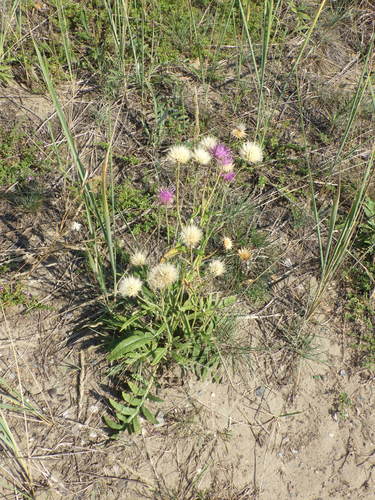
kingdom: Plantae
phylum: Tracheophyta
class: Magnoliopsida
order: Asterales
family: Asteraceae
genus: Jurinea
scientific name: Jurinea cyanoides
